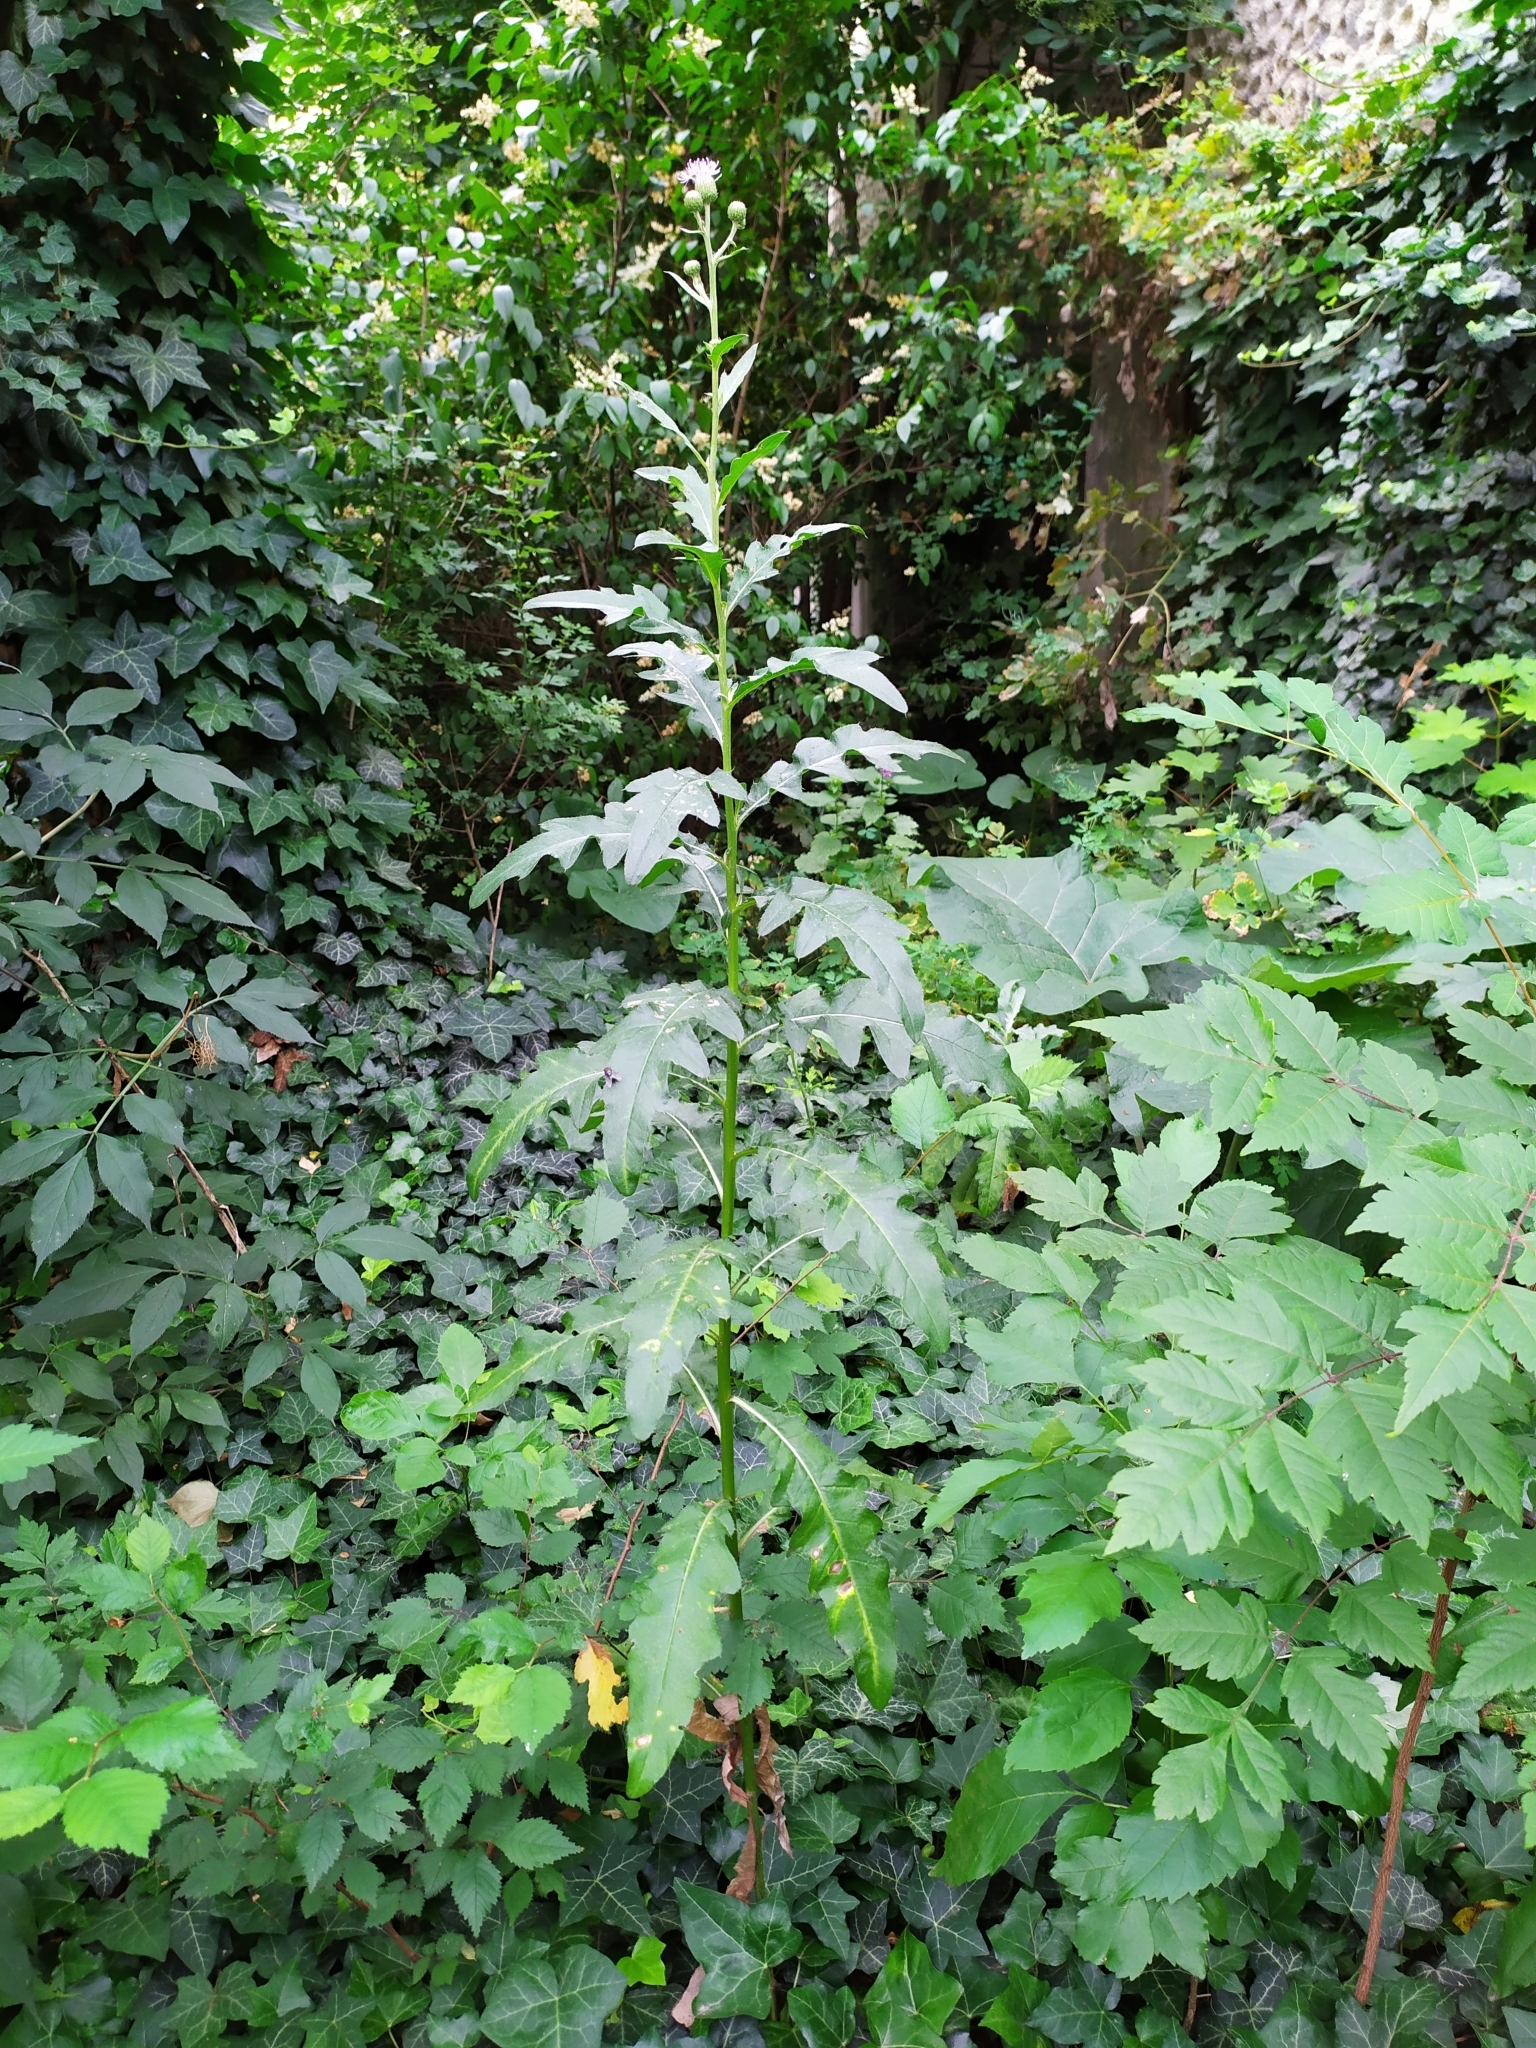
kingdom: Plantae
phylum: Tracheophyta
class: Magnoliopsida
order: Asterales
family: Asteraceae
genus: Cirsium
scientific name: Cirsium arvense
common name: Creeping thistle
